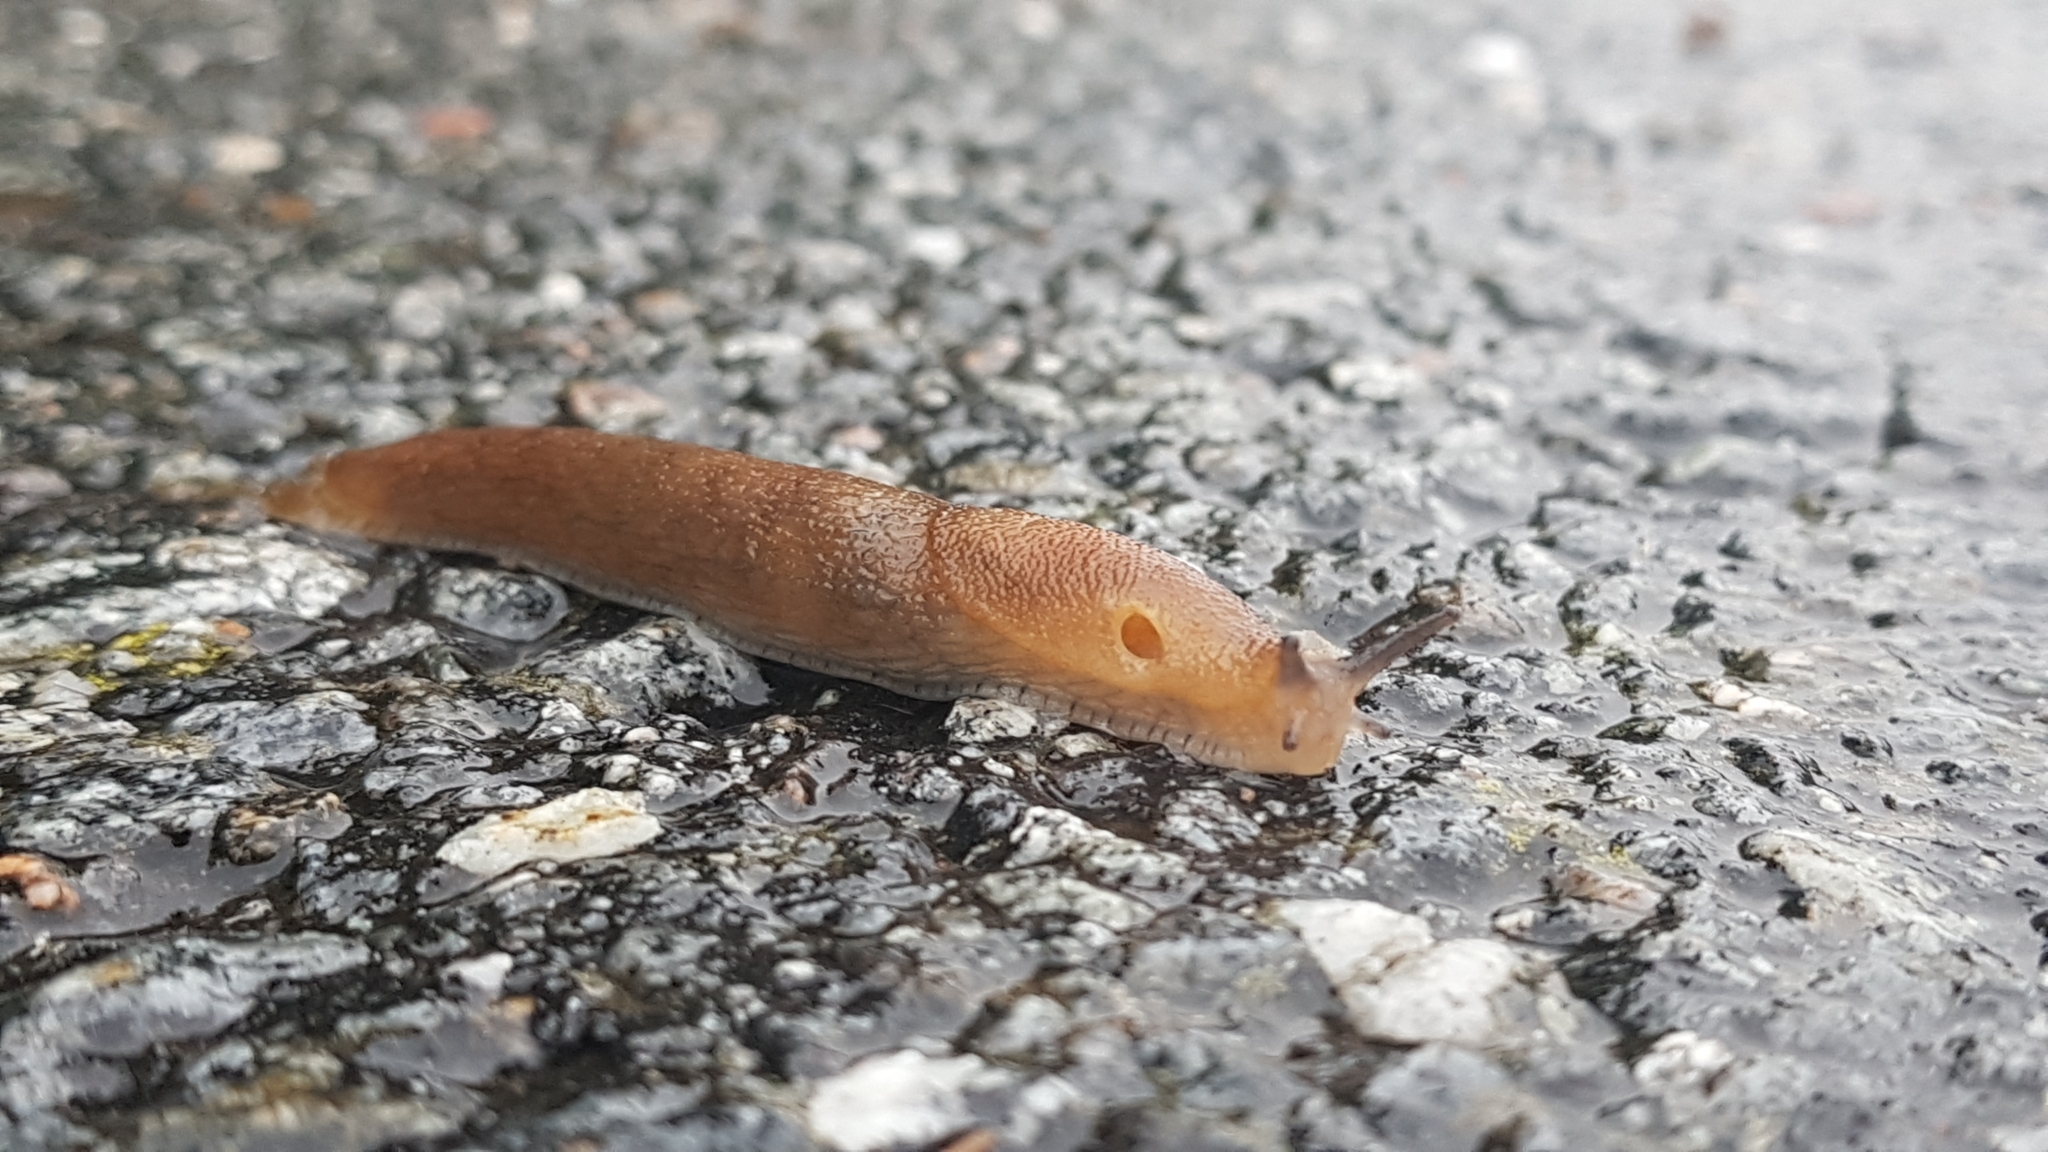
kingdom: Animalia
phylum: Mollusca
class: Gastropoda
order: Stylommatophora
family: Arionidae
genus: Arion
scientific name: Arion vulgaris
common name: Lusitanian slug
